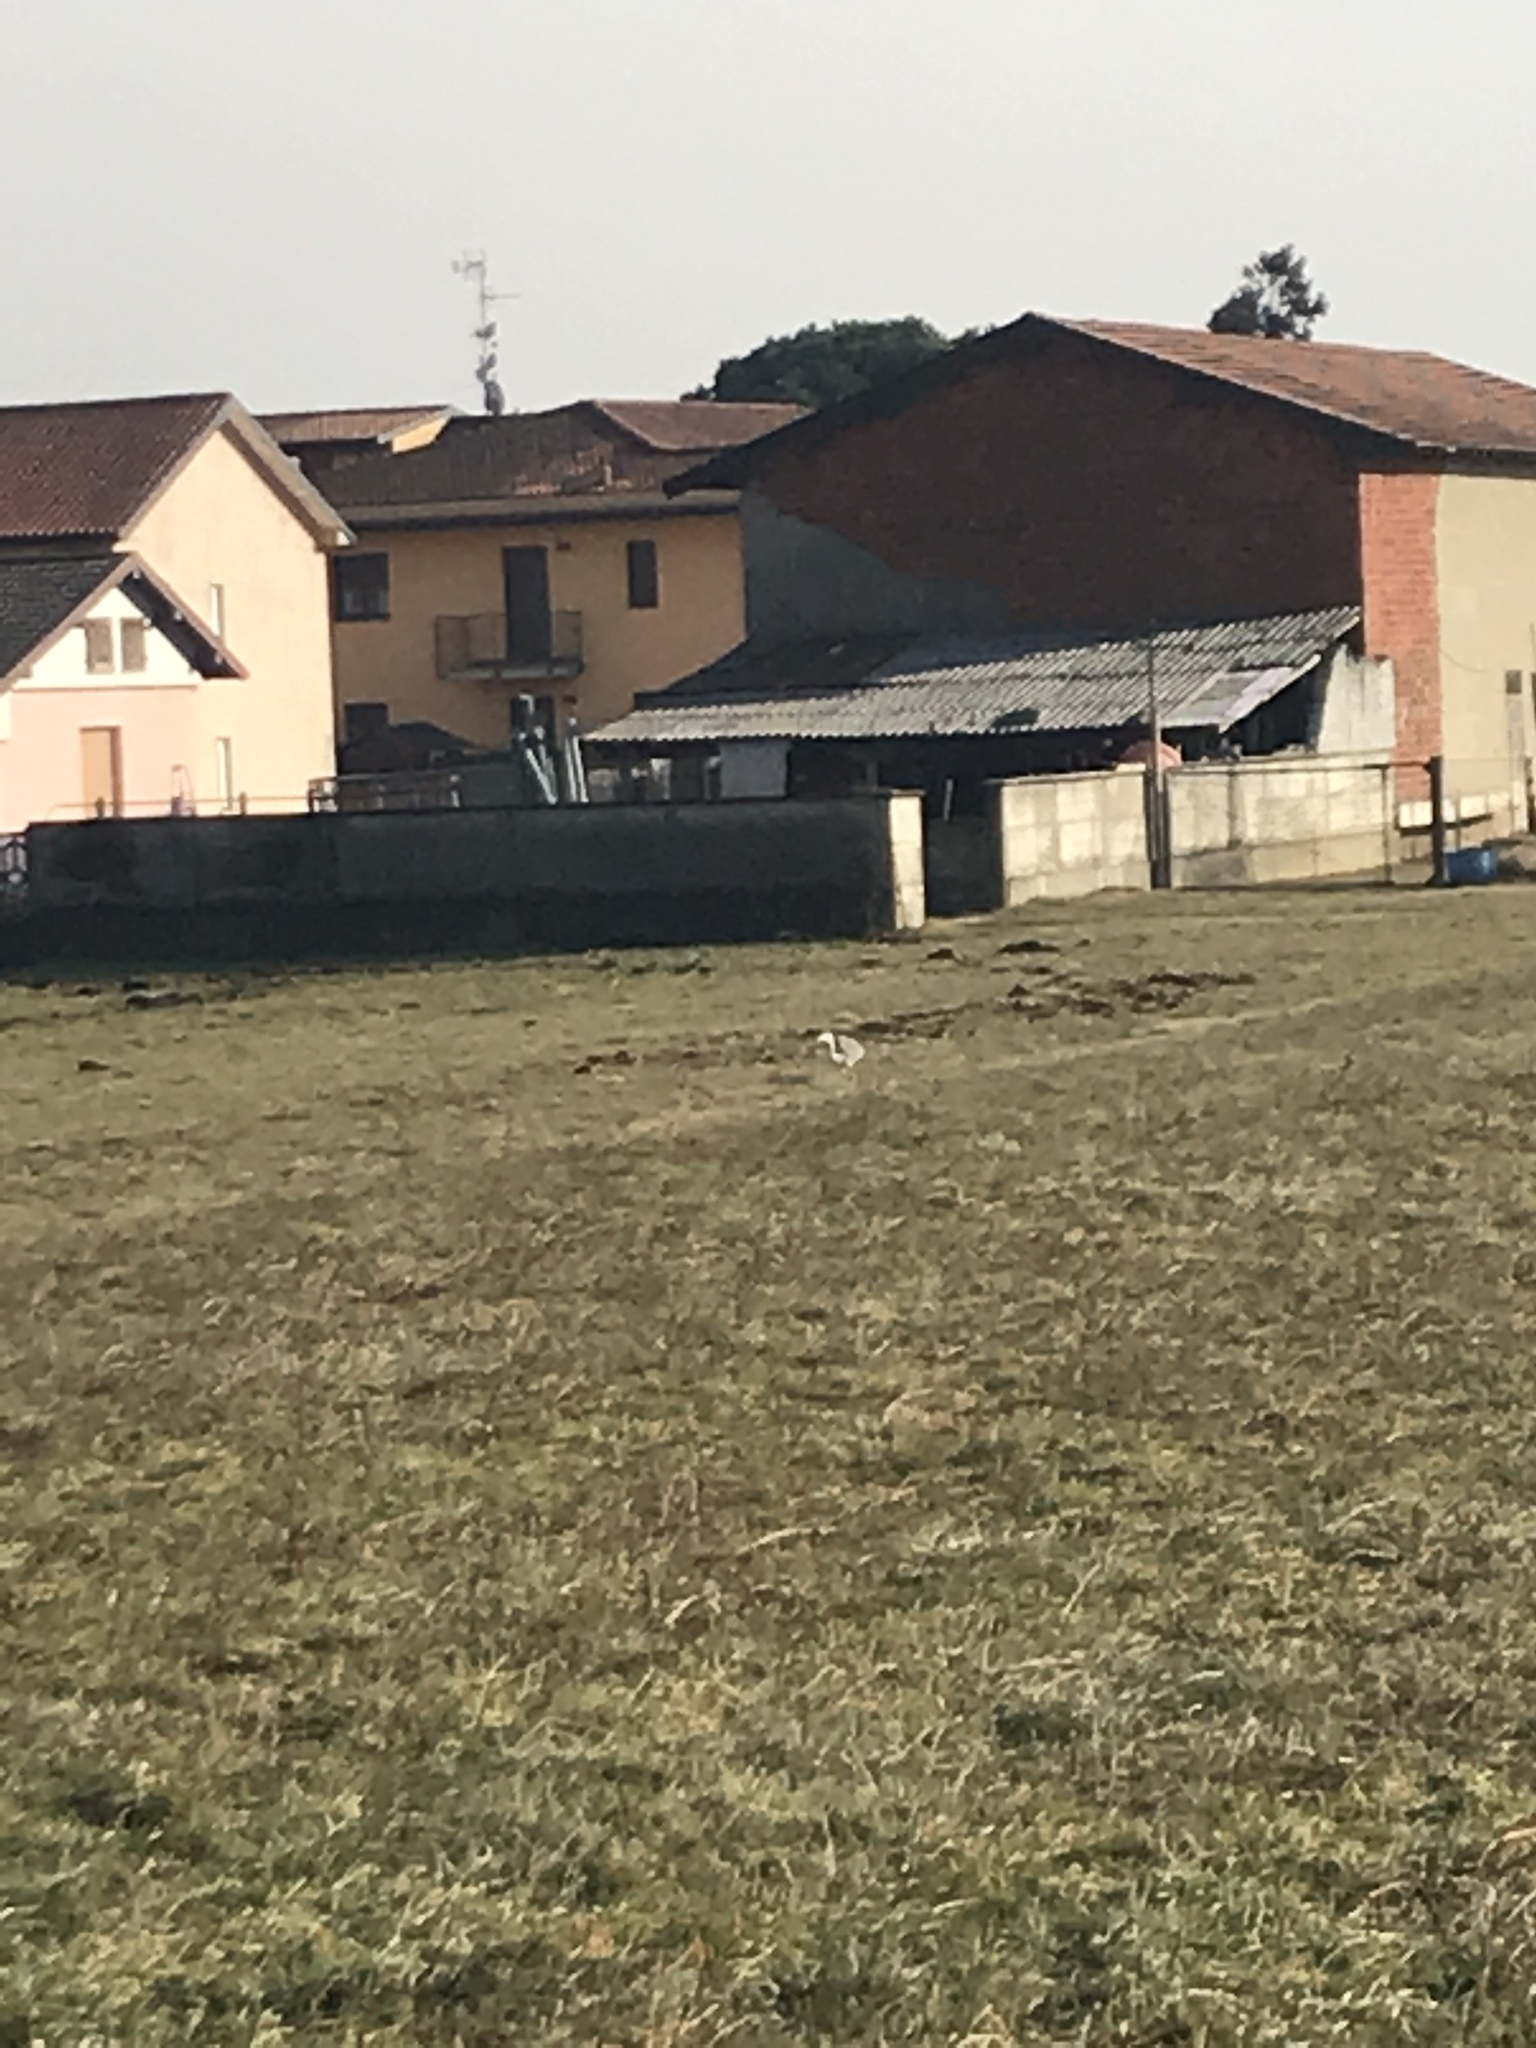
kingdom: Animalia
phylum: Chordata
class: Aves
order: Pelecaniformes
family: Ardeidae
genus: Ardea
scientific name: Ardea cinerea
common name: Grey heron
